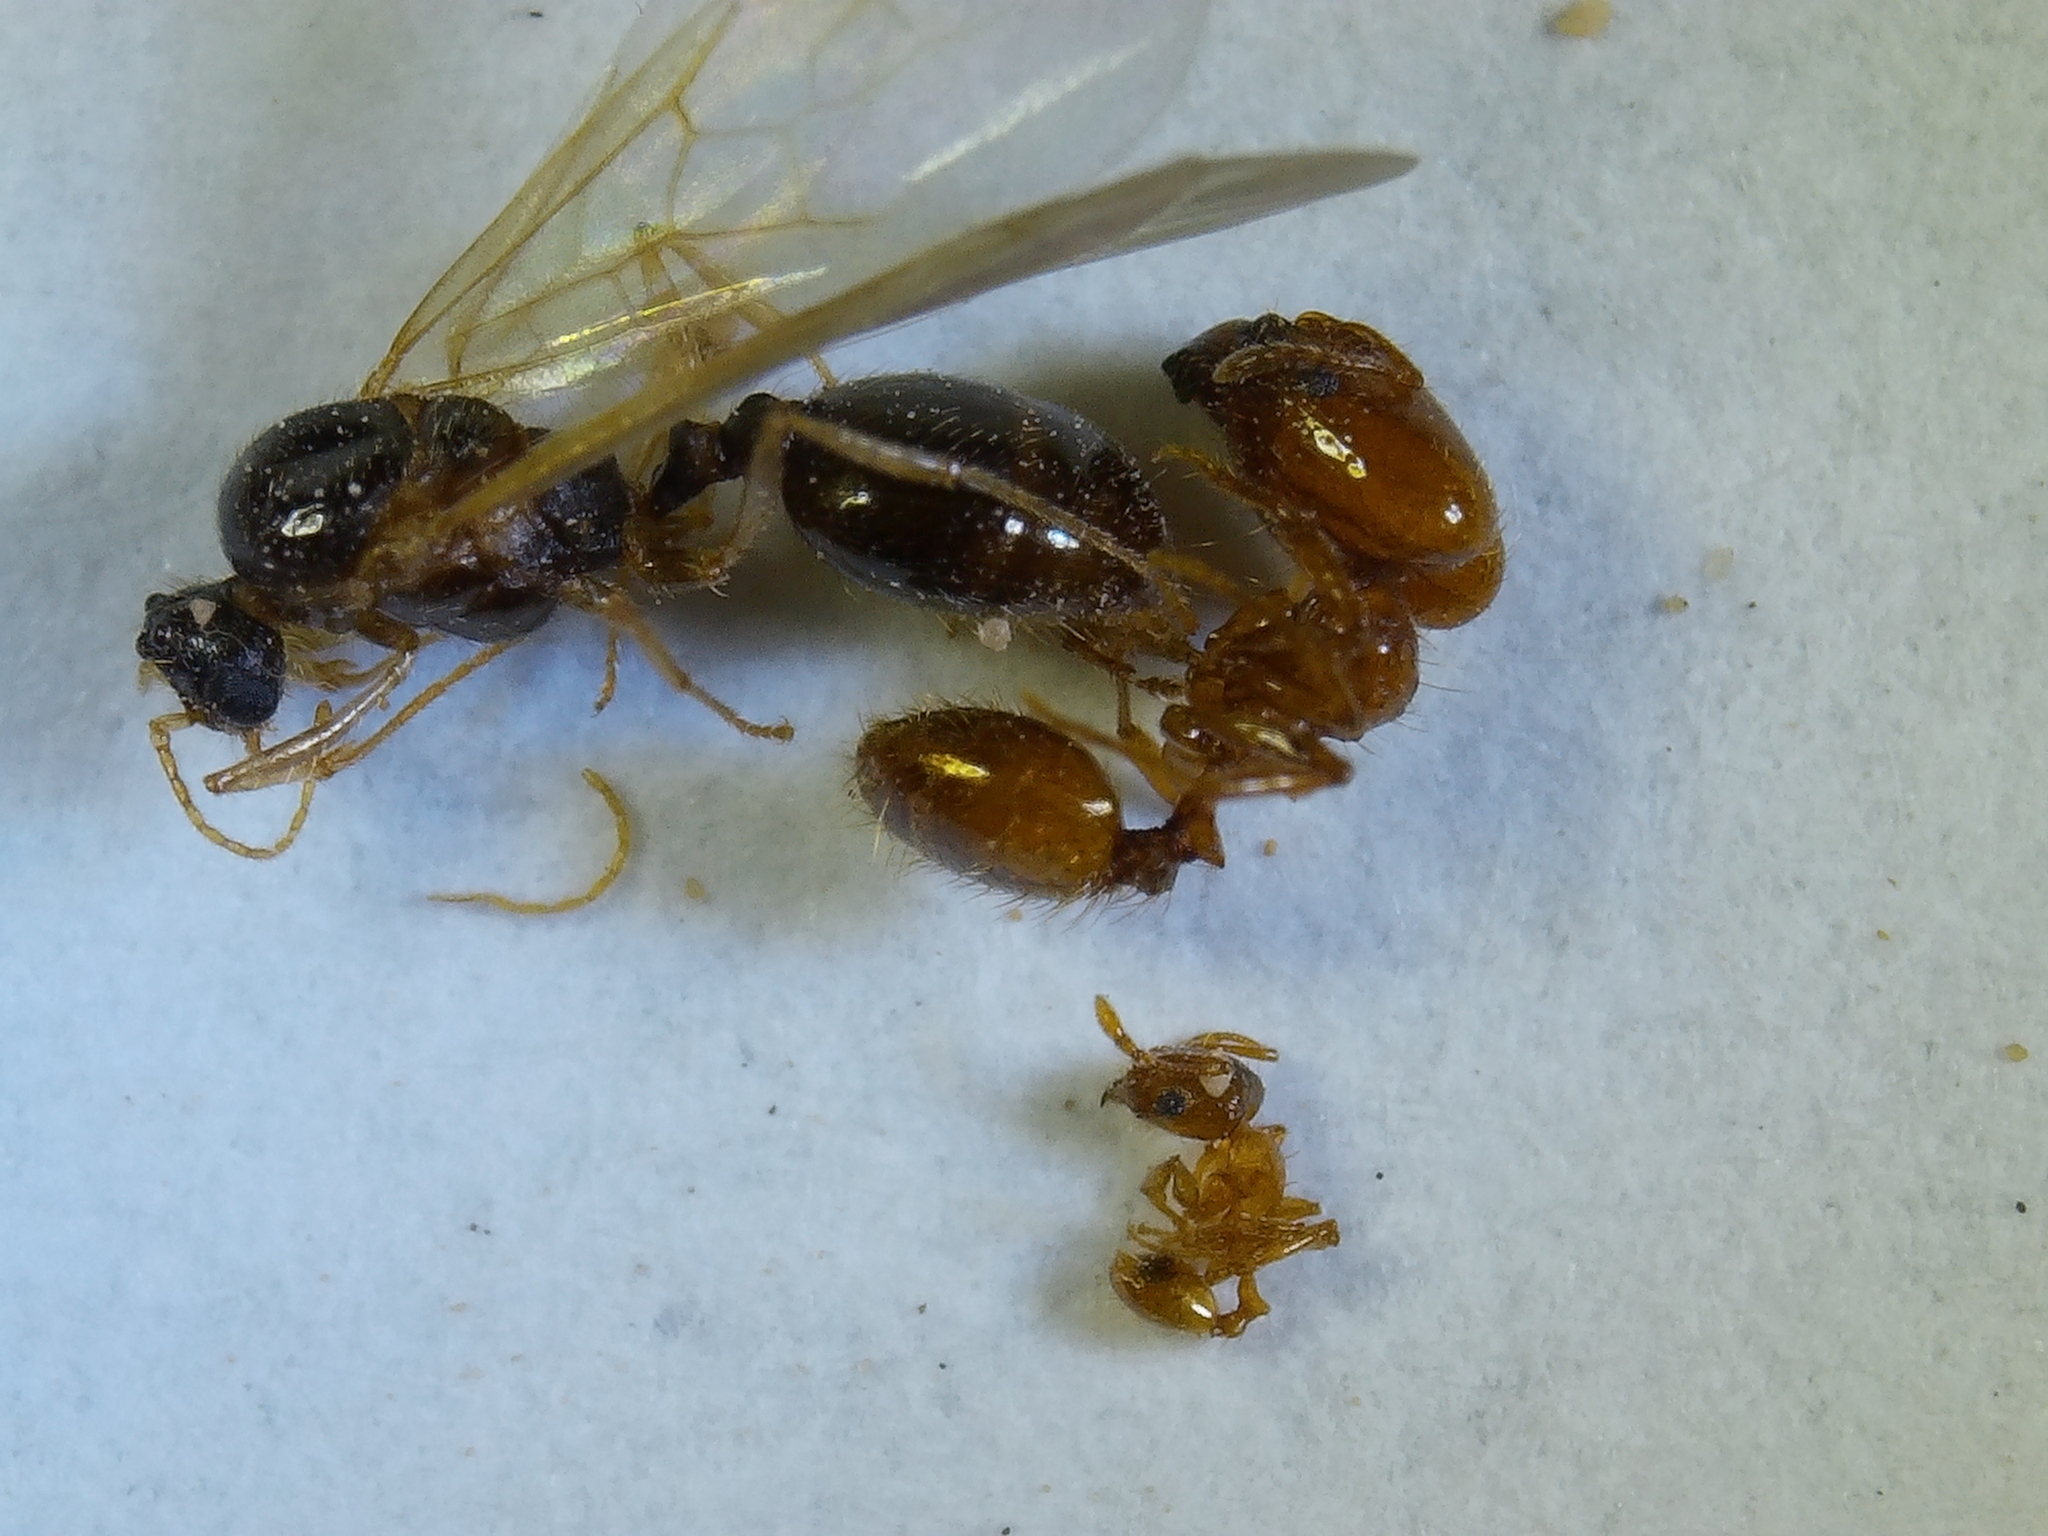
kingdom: Animalia
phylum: Arthropoda
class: Insecta
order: Hymenoptera
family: Formicidae
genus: Pheidole
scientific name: Pheidole micula
